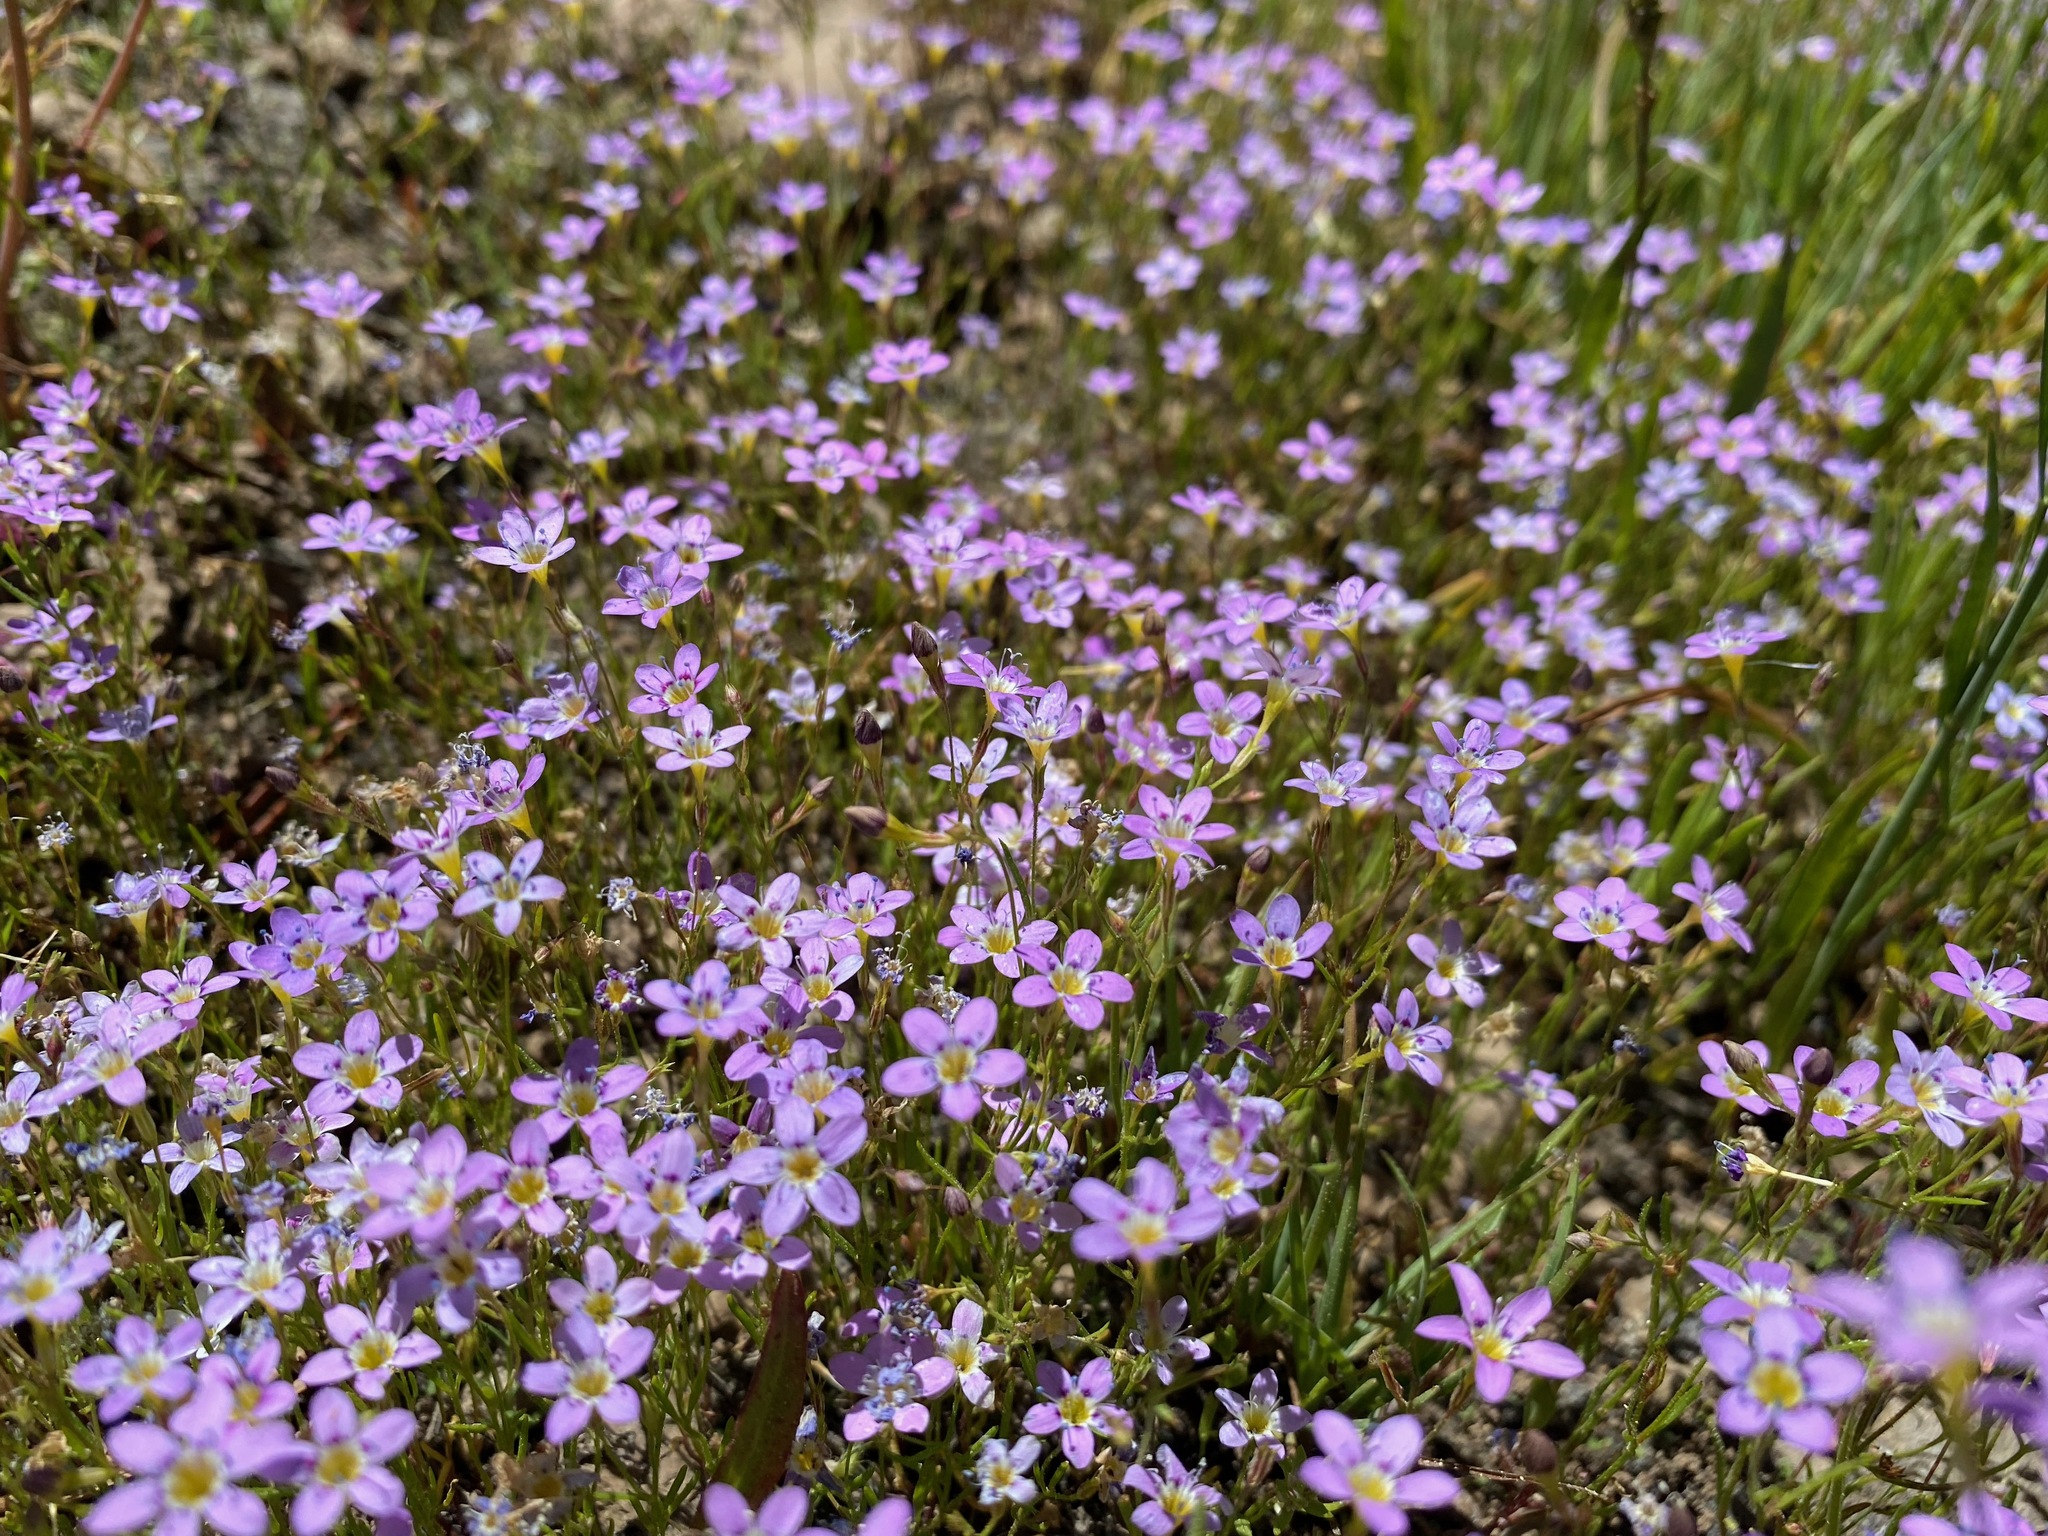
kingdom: Plantae
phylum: Tracheophyta
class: Magnoliopsida
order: Ericales
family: Polemoniaceae
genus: Navarretia
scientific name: Navarretia leptalea
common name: Bridges' pincushionplant
